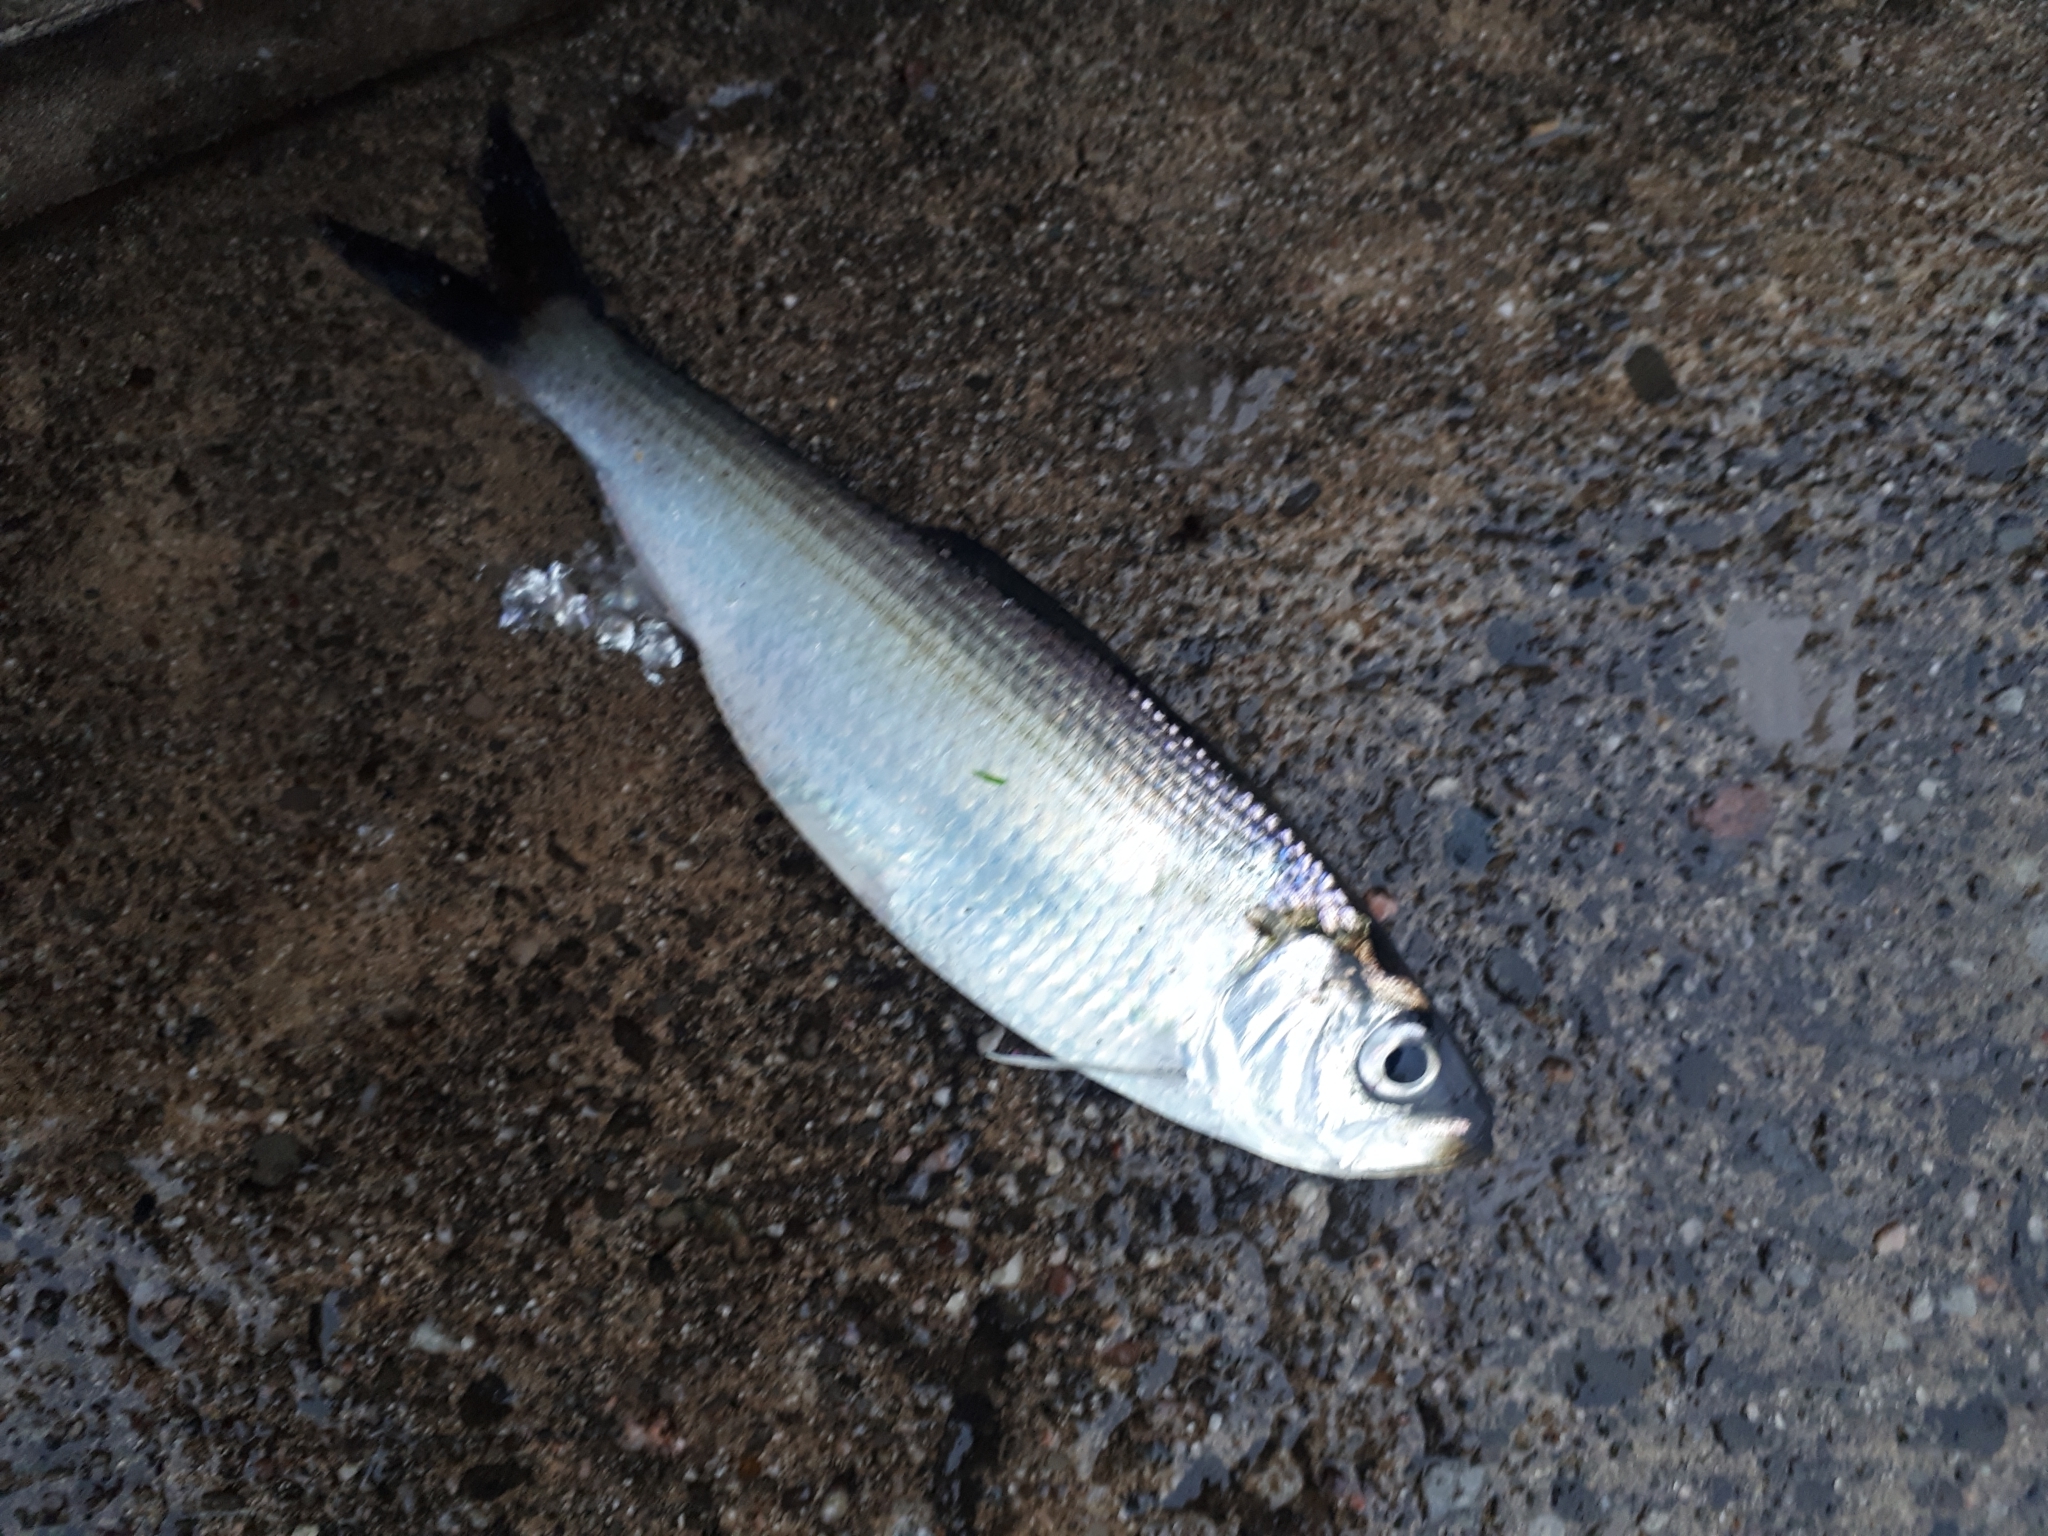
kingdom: Animalia
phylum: Chordata
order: Clupeiformes
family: Clupeidae
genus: Alosa
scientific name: Alosa pseudoharengus
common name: Alewife
